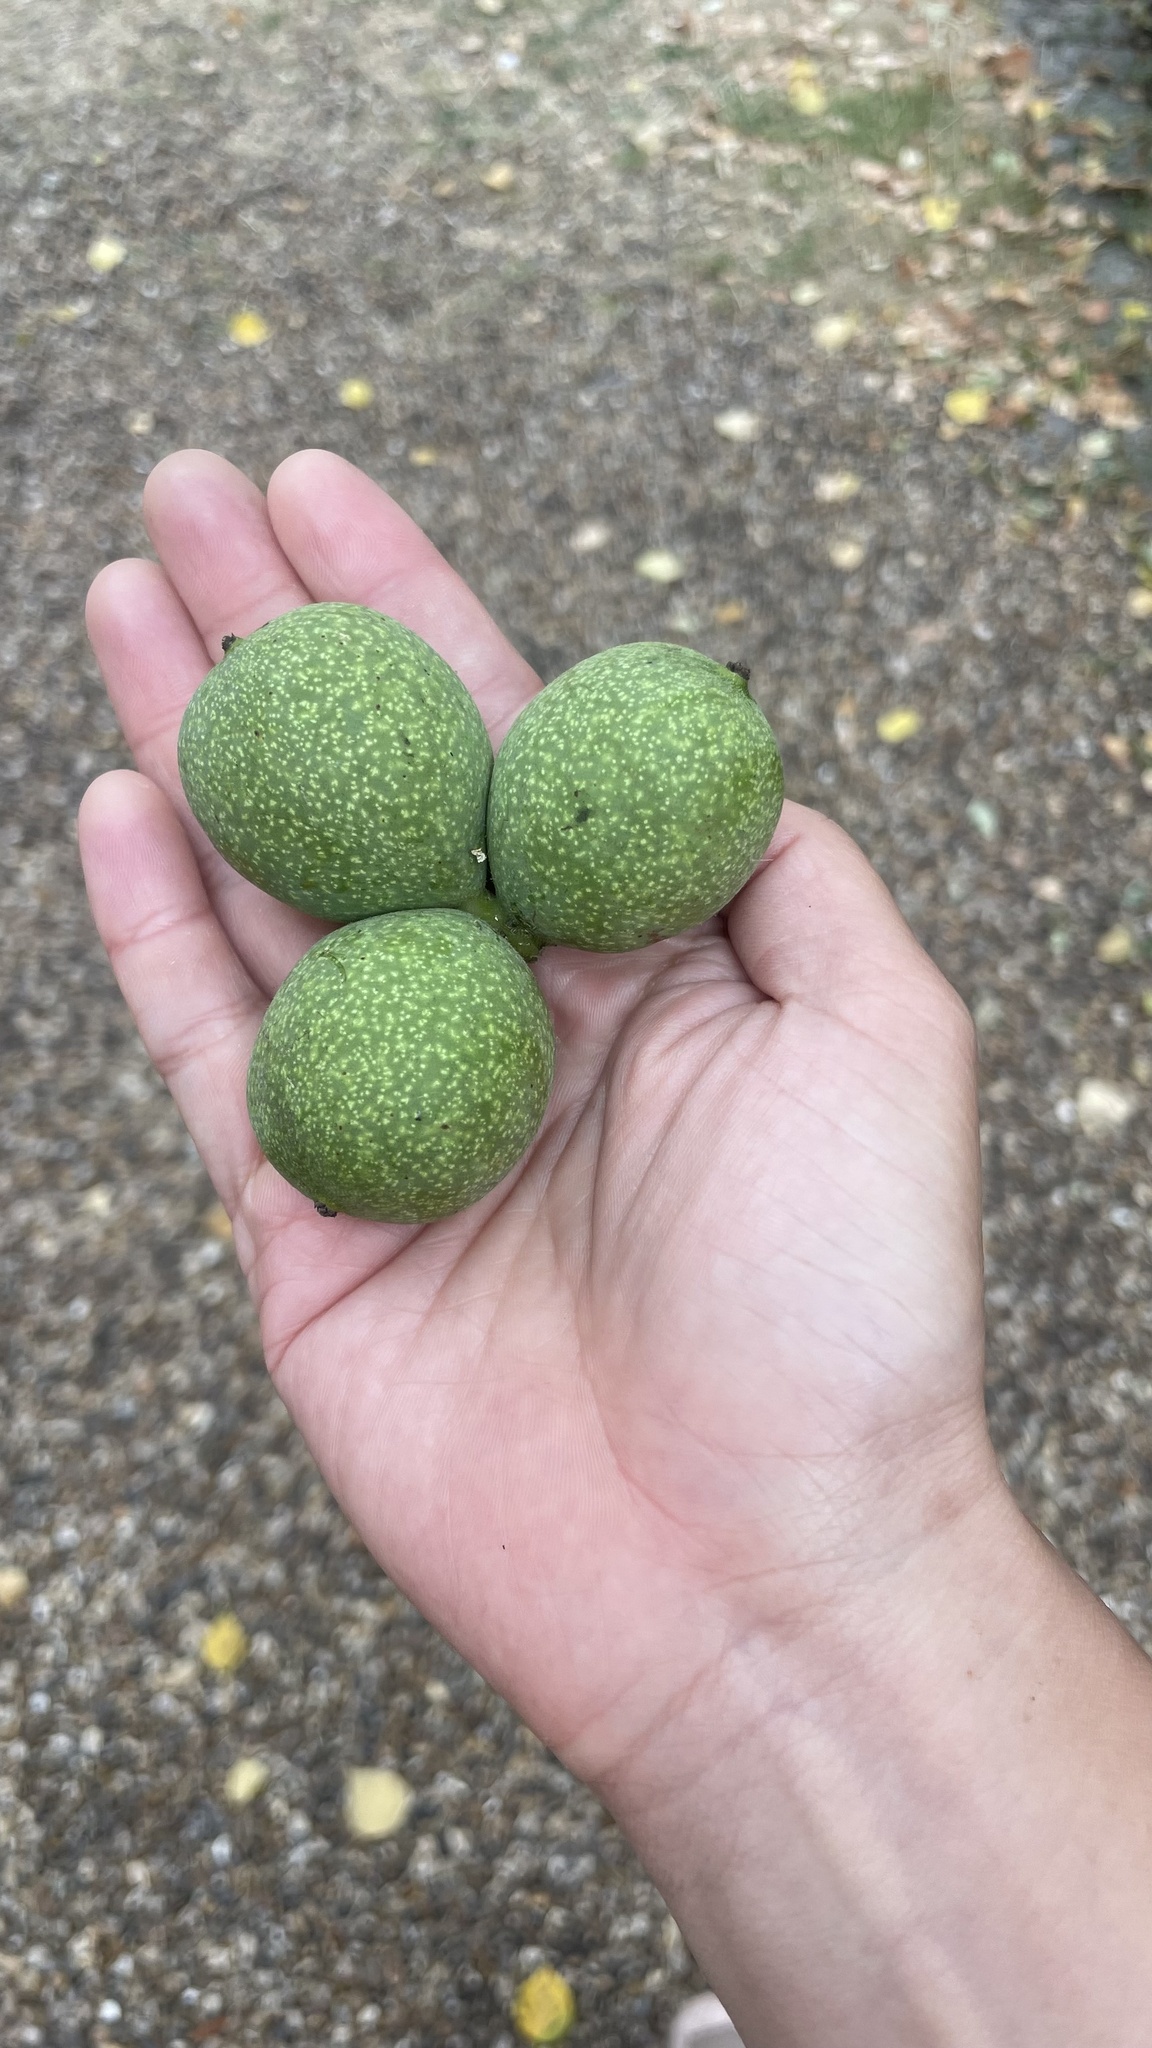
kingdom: Plantae
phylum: Tracheophyta
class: Magnoliopsida
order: Fagales
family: Juglandaceae
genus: Juglans
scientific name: Juglans regia
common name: Walnut
